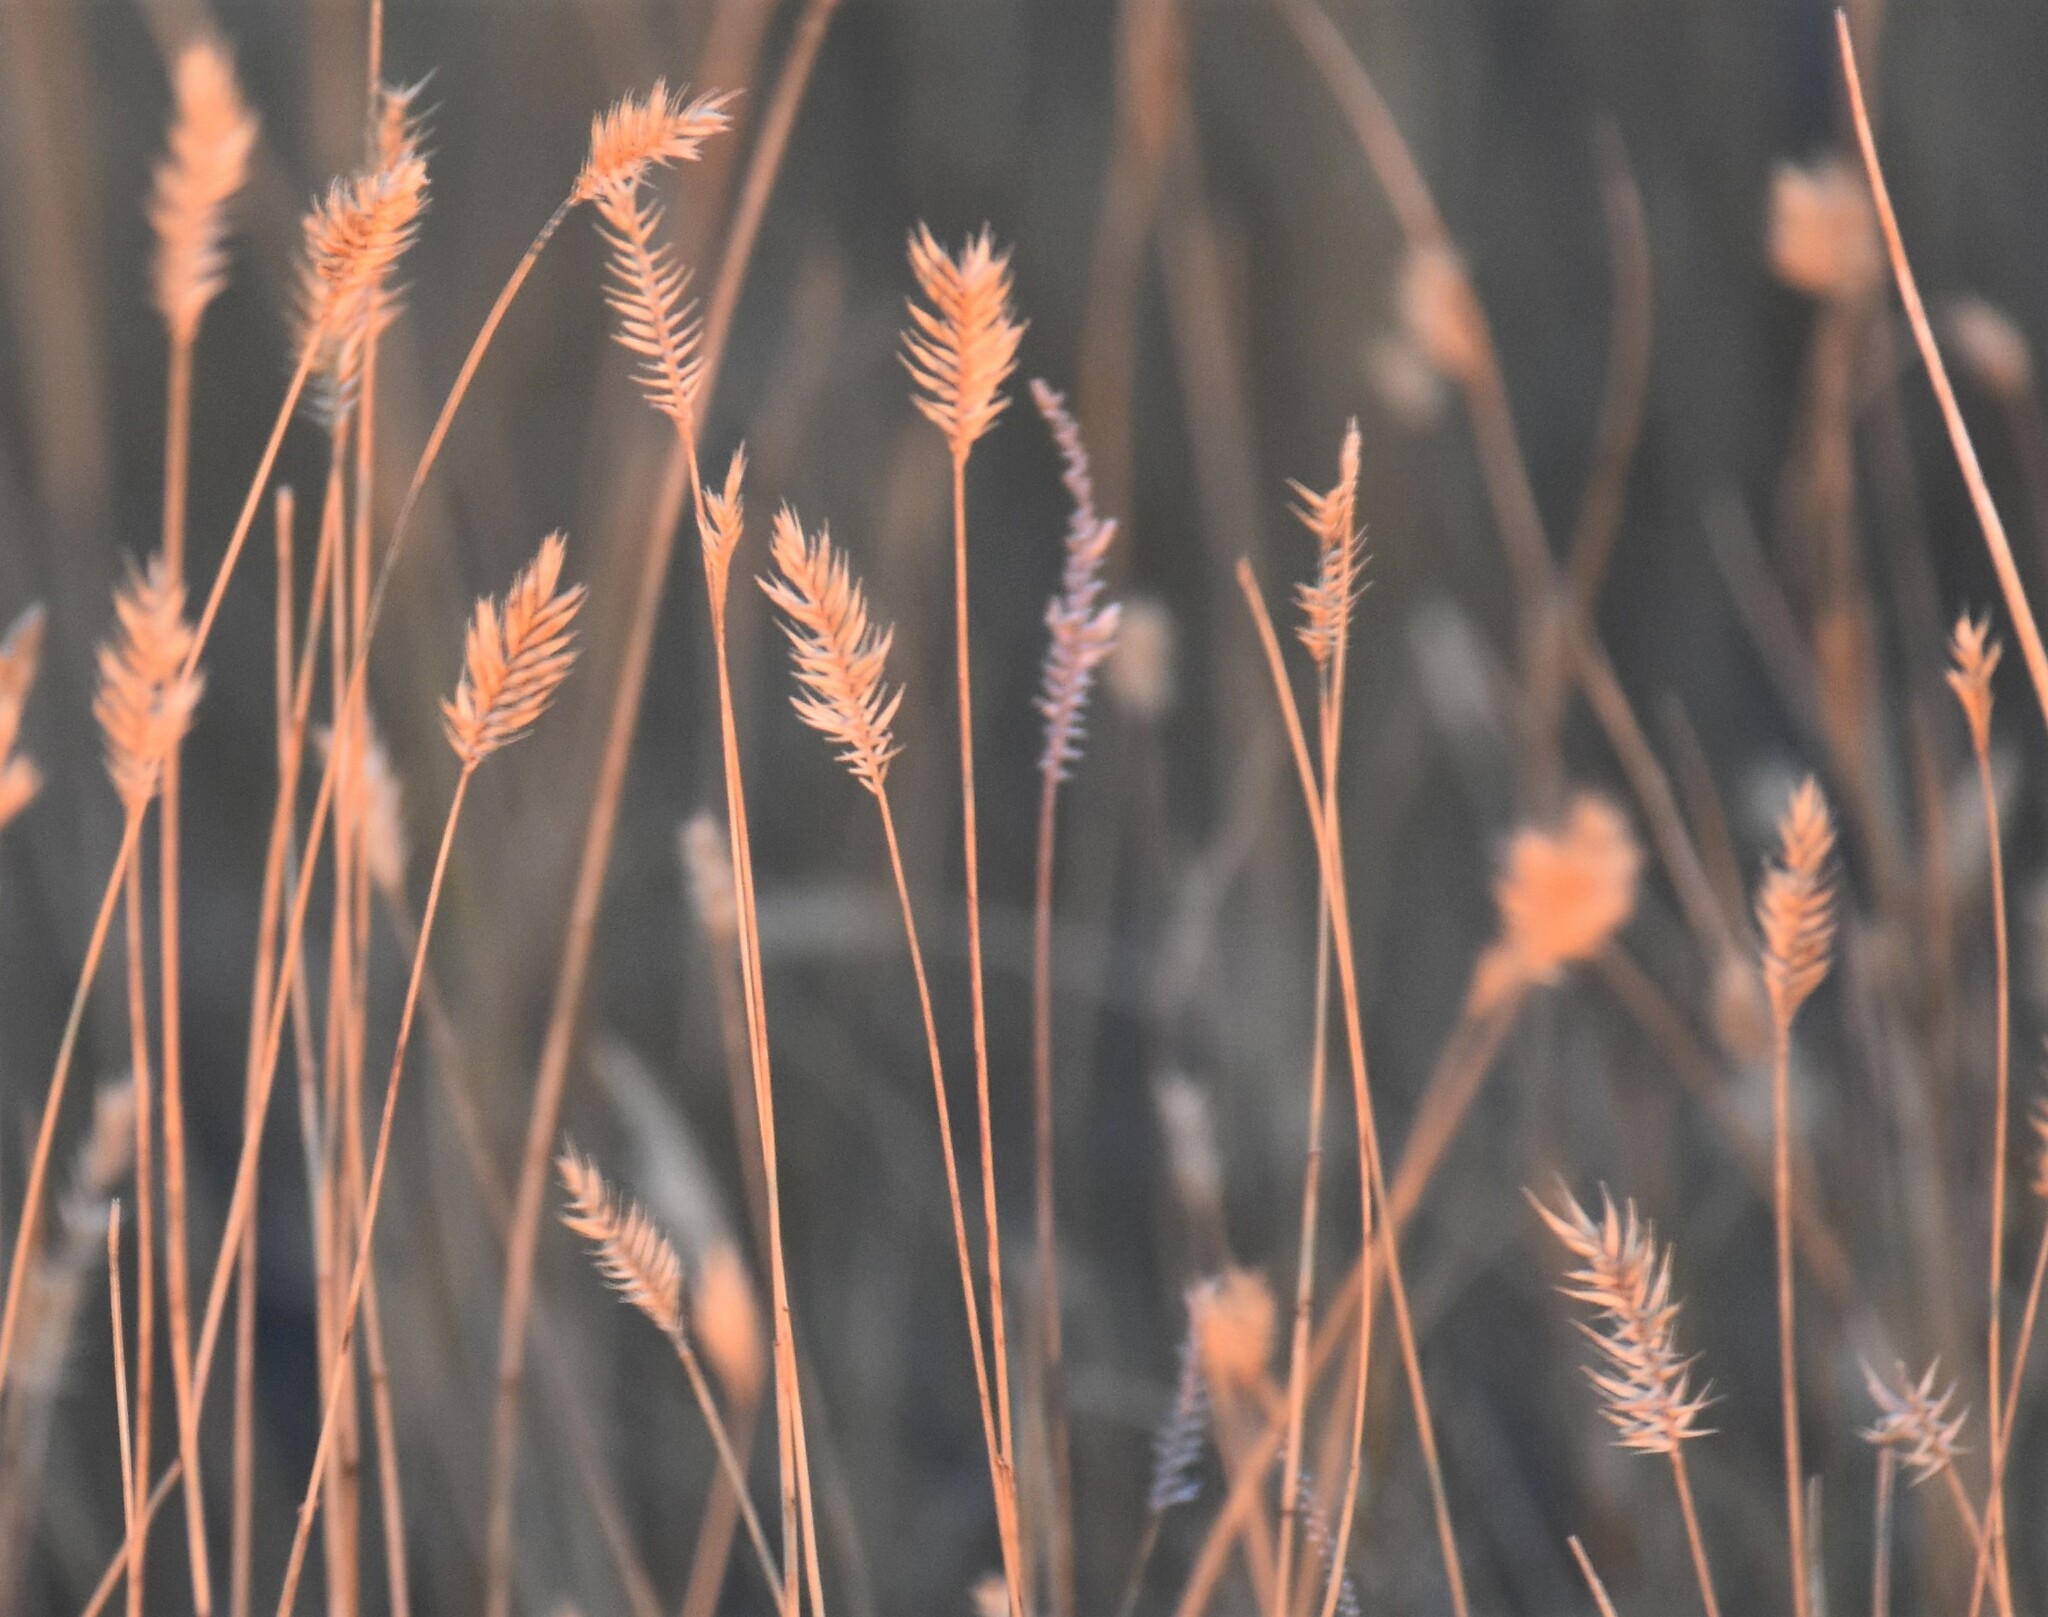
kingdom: Plantae
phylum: Tracheophyta
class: Liliopsida
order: Poales
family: Poaceae
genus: Agropyron
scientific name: Agropyron cristatum
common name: Crested wheatgrass
